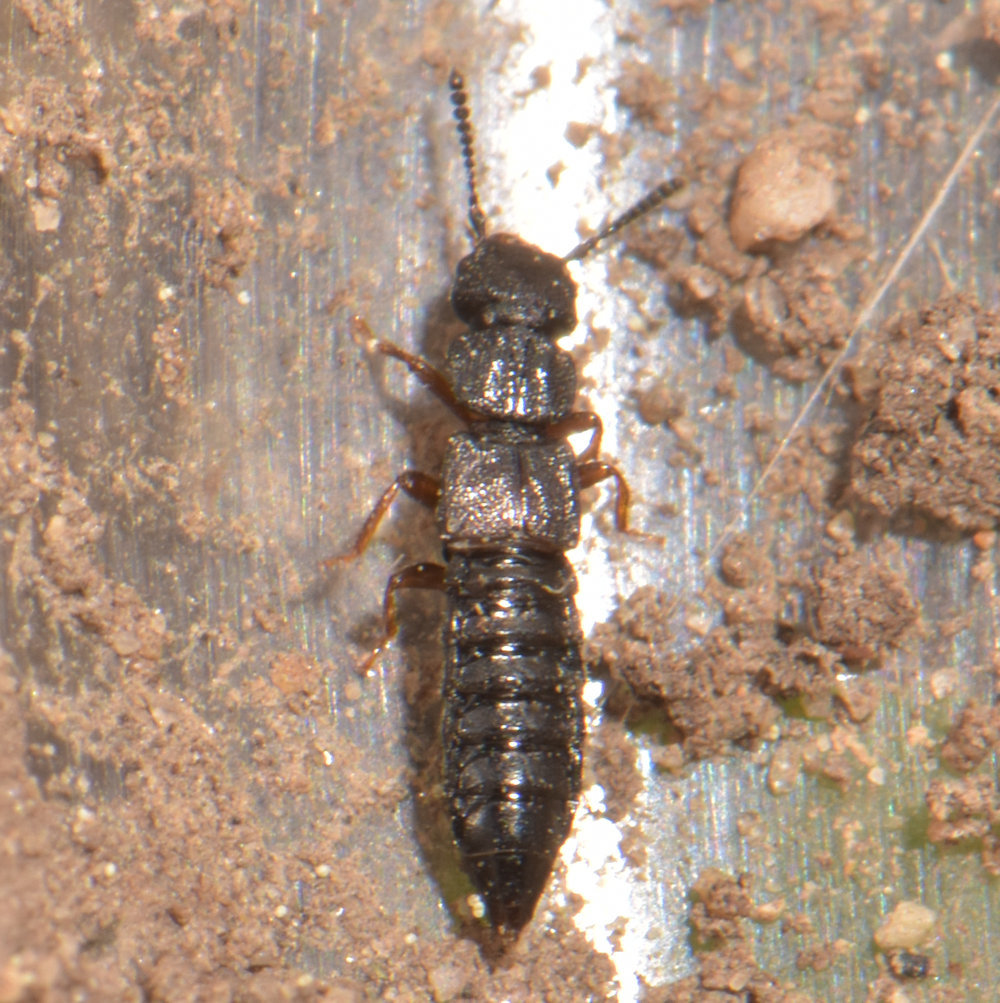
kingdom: Animalia
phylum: Arthropoda
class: Insecta
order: Coleoptera
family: Staphylinidae
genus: Anotylus
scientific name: Anotylus rugosus
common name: Rove beetle
